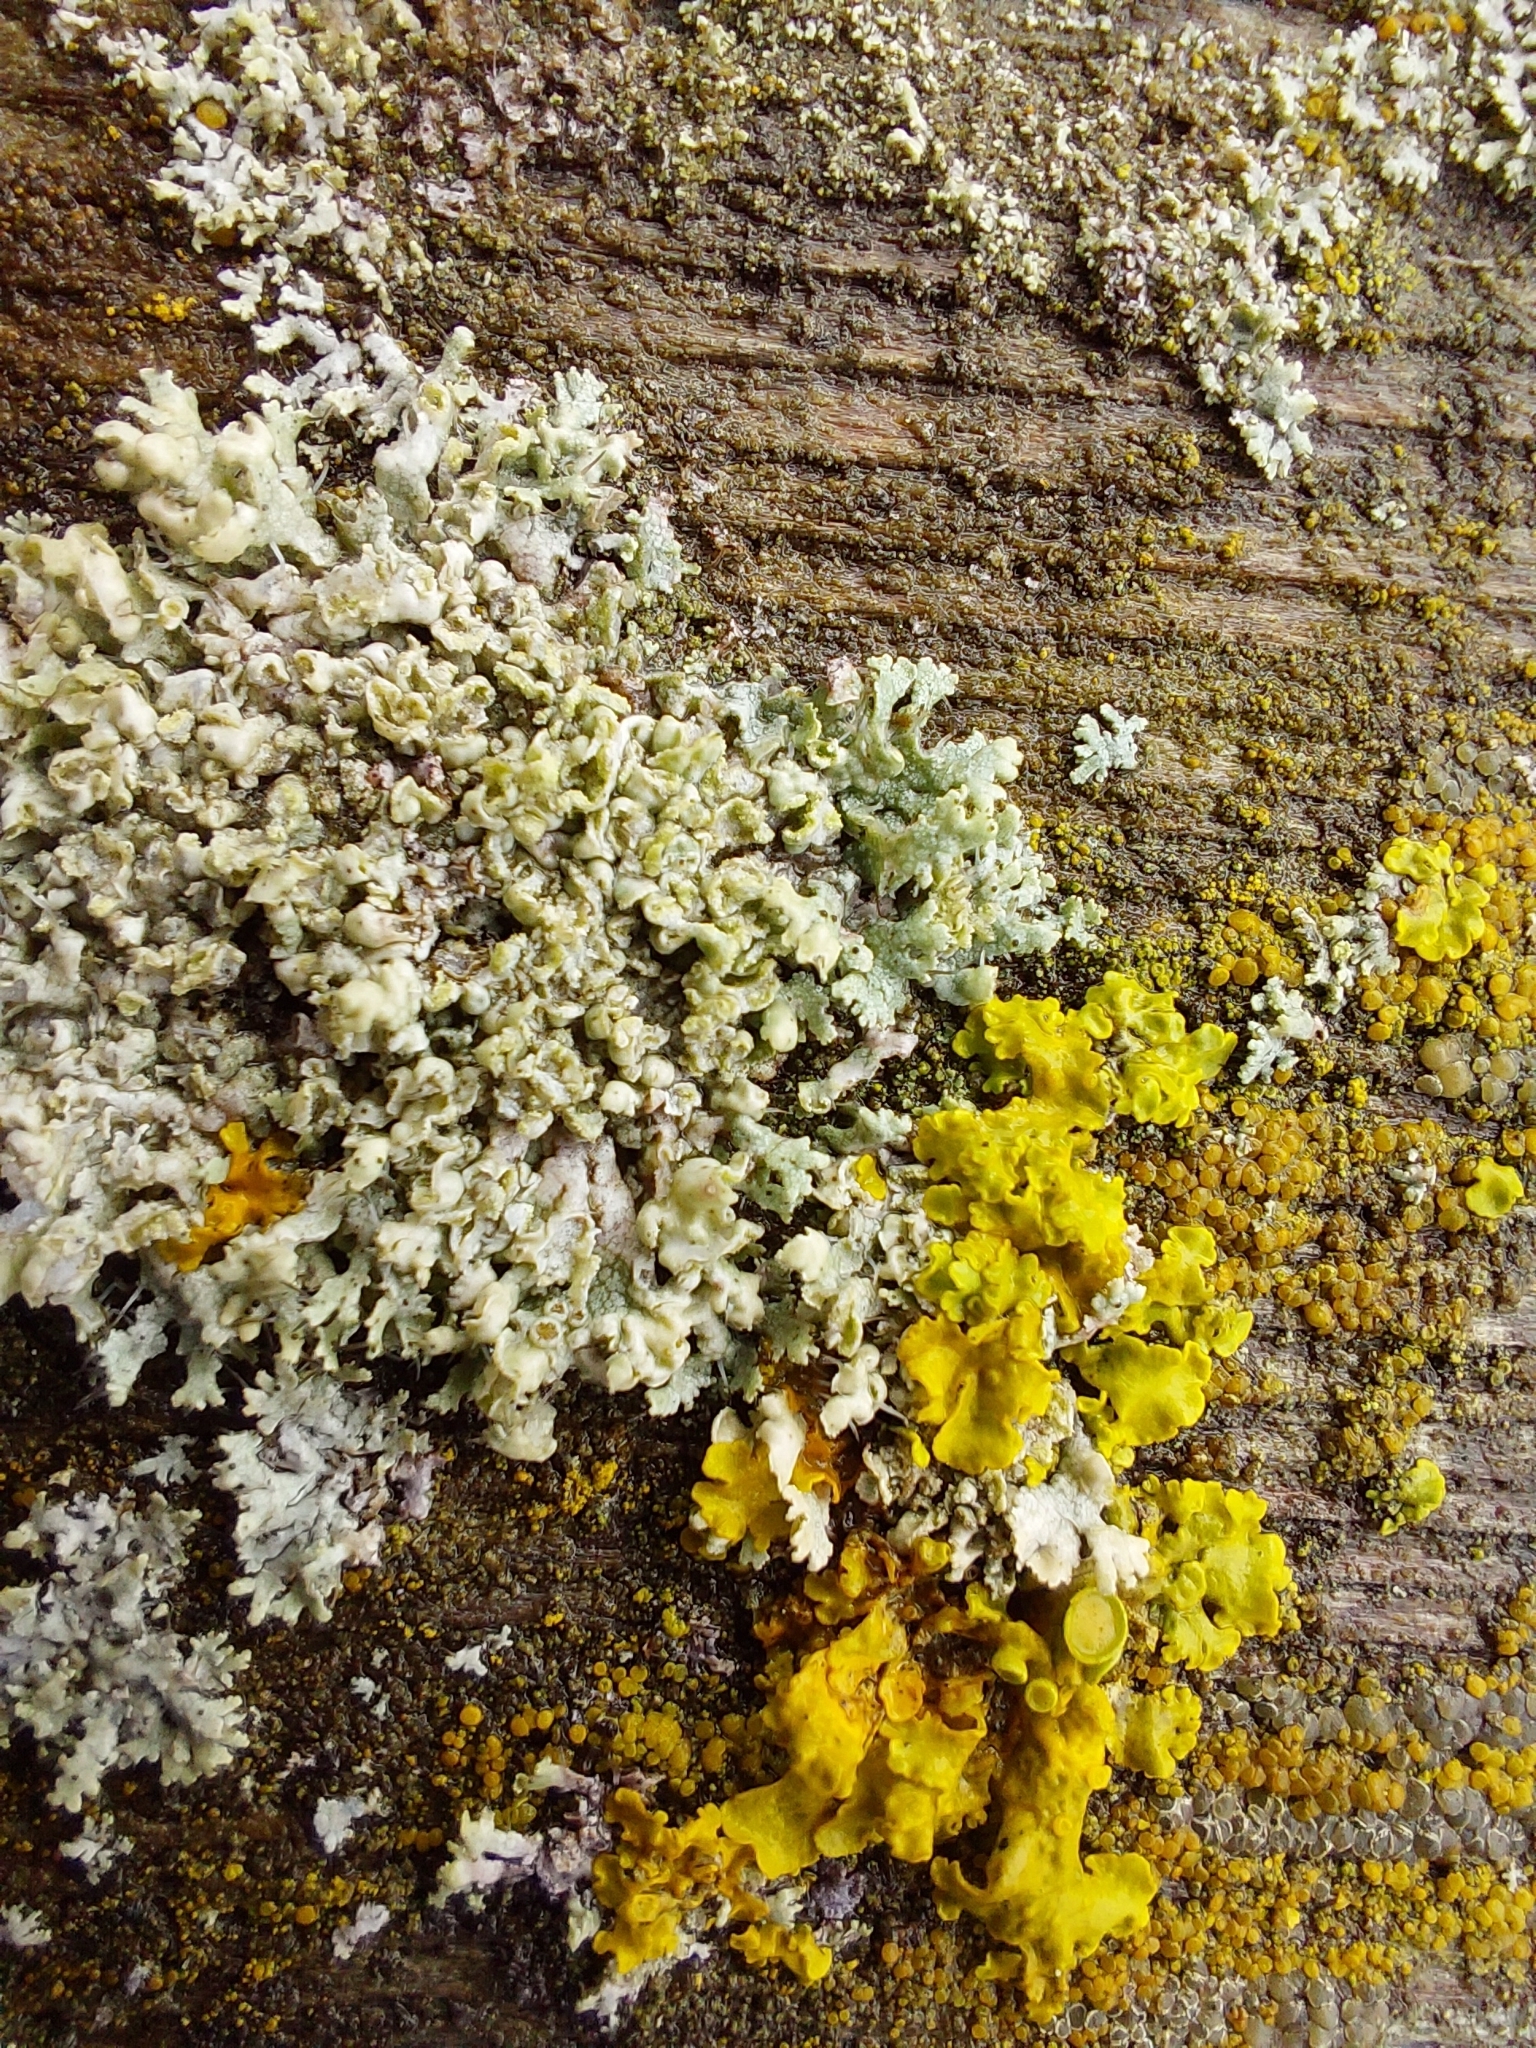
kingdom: Fungi
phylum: Ascomycota
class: Lecanoromycetes
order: Caliciales
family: Physciaceae
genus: Physcia
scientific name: Physcia adscendens
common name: Hooded rosette lichen
